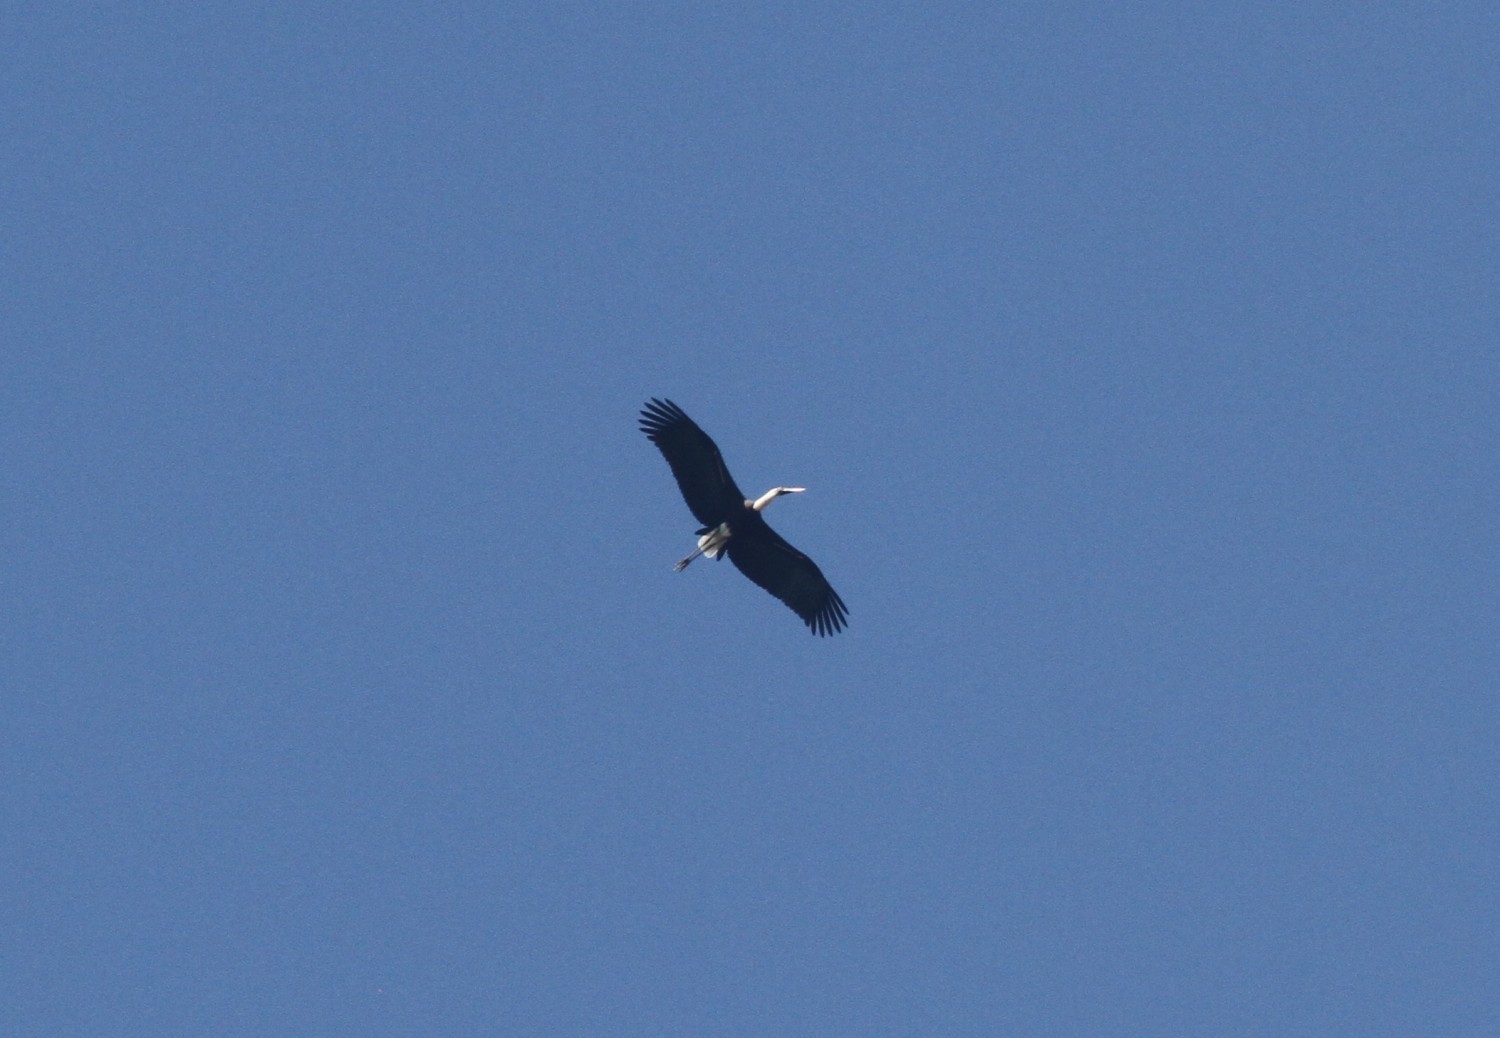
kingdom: Animalia
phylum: Chordata
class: Aves
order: Ciconiiformes
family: Ciconiidae
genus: Ciconia
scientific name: Ciconia episcopus
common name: Woolly-necked stork
